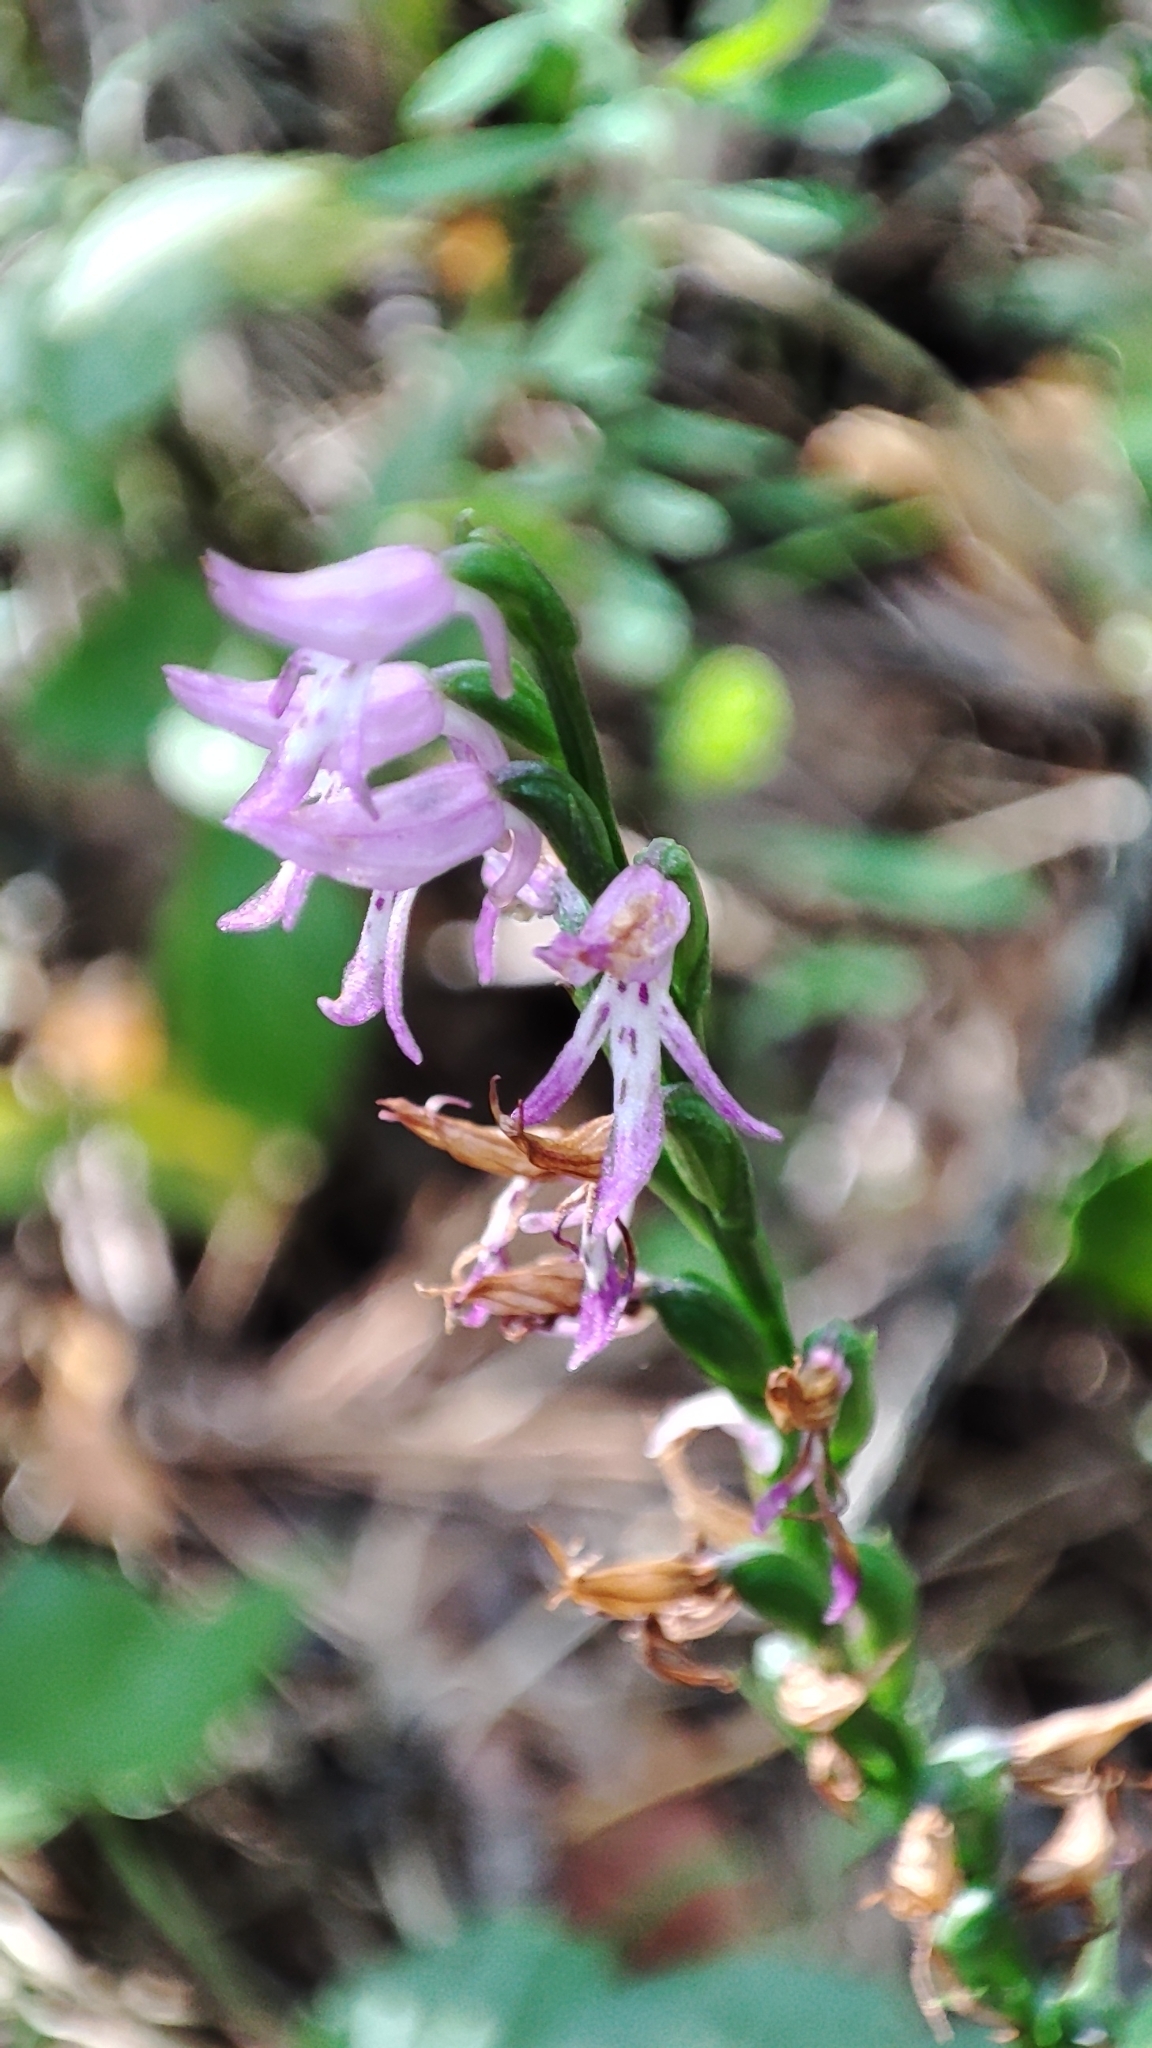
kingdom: Plantae
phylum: Tracheophyta
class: Liliopsida
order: Asparagales
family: Orchidaceae
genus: Hemipilia
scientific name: Hemipilia cucullata
